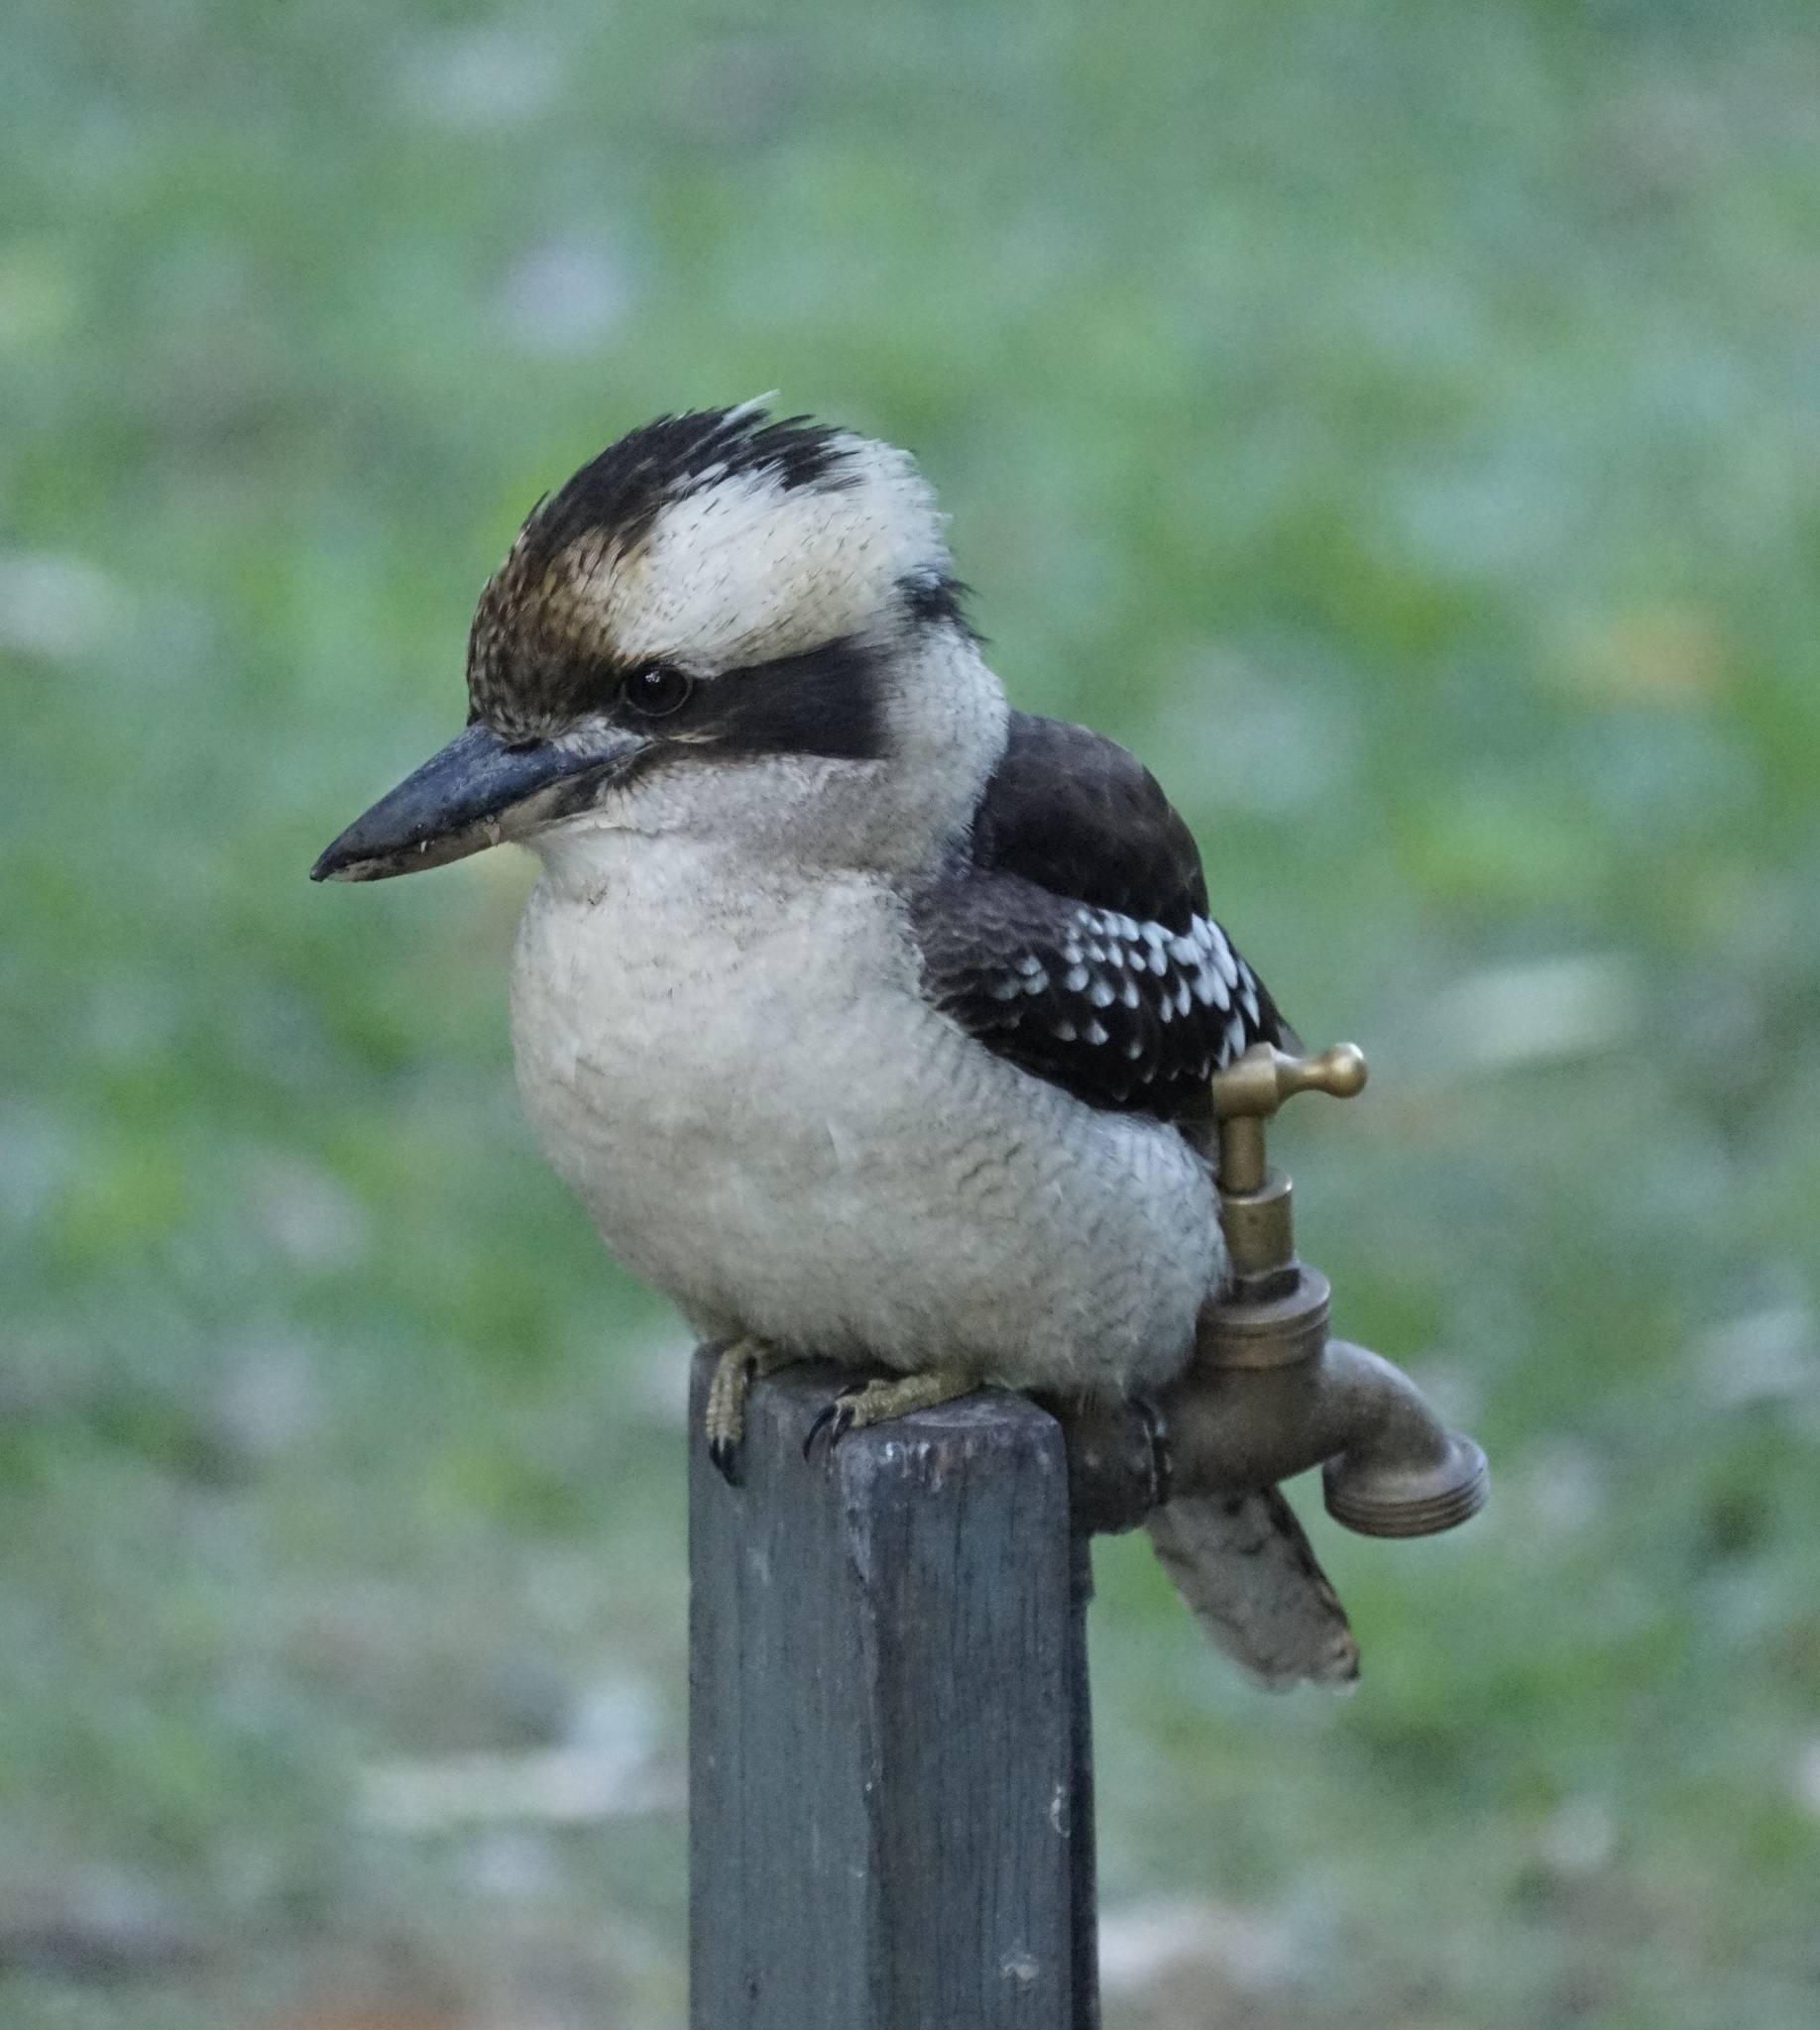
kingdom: Animalia
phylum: Chordata
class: Aves
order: Coraciiformes
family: Alcedinidae
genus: Dacelo
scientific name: Dacelo novaeguineae
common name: Laughing kookaburra
